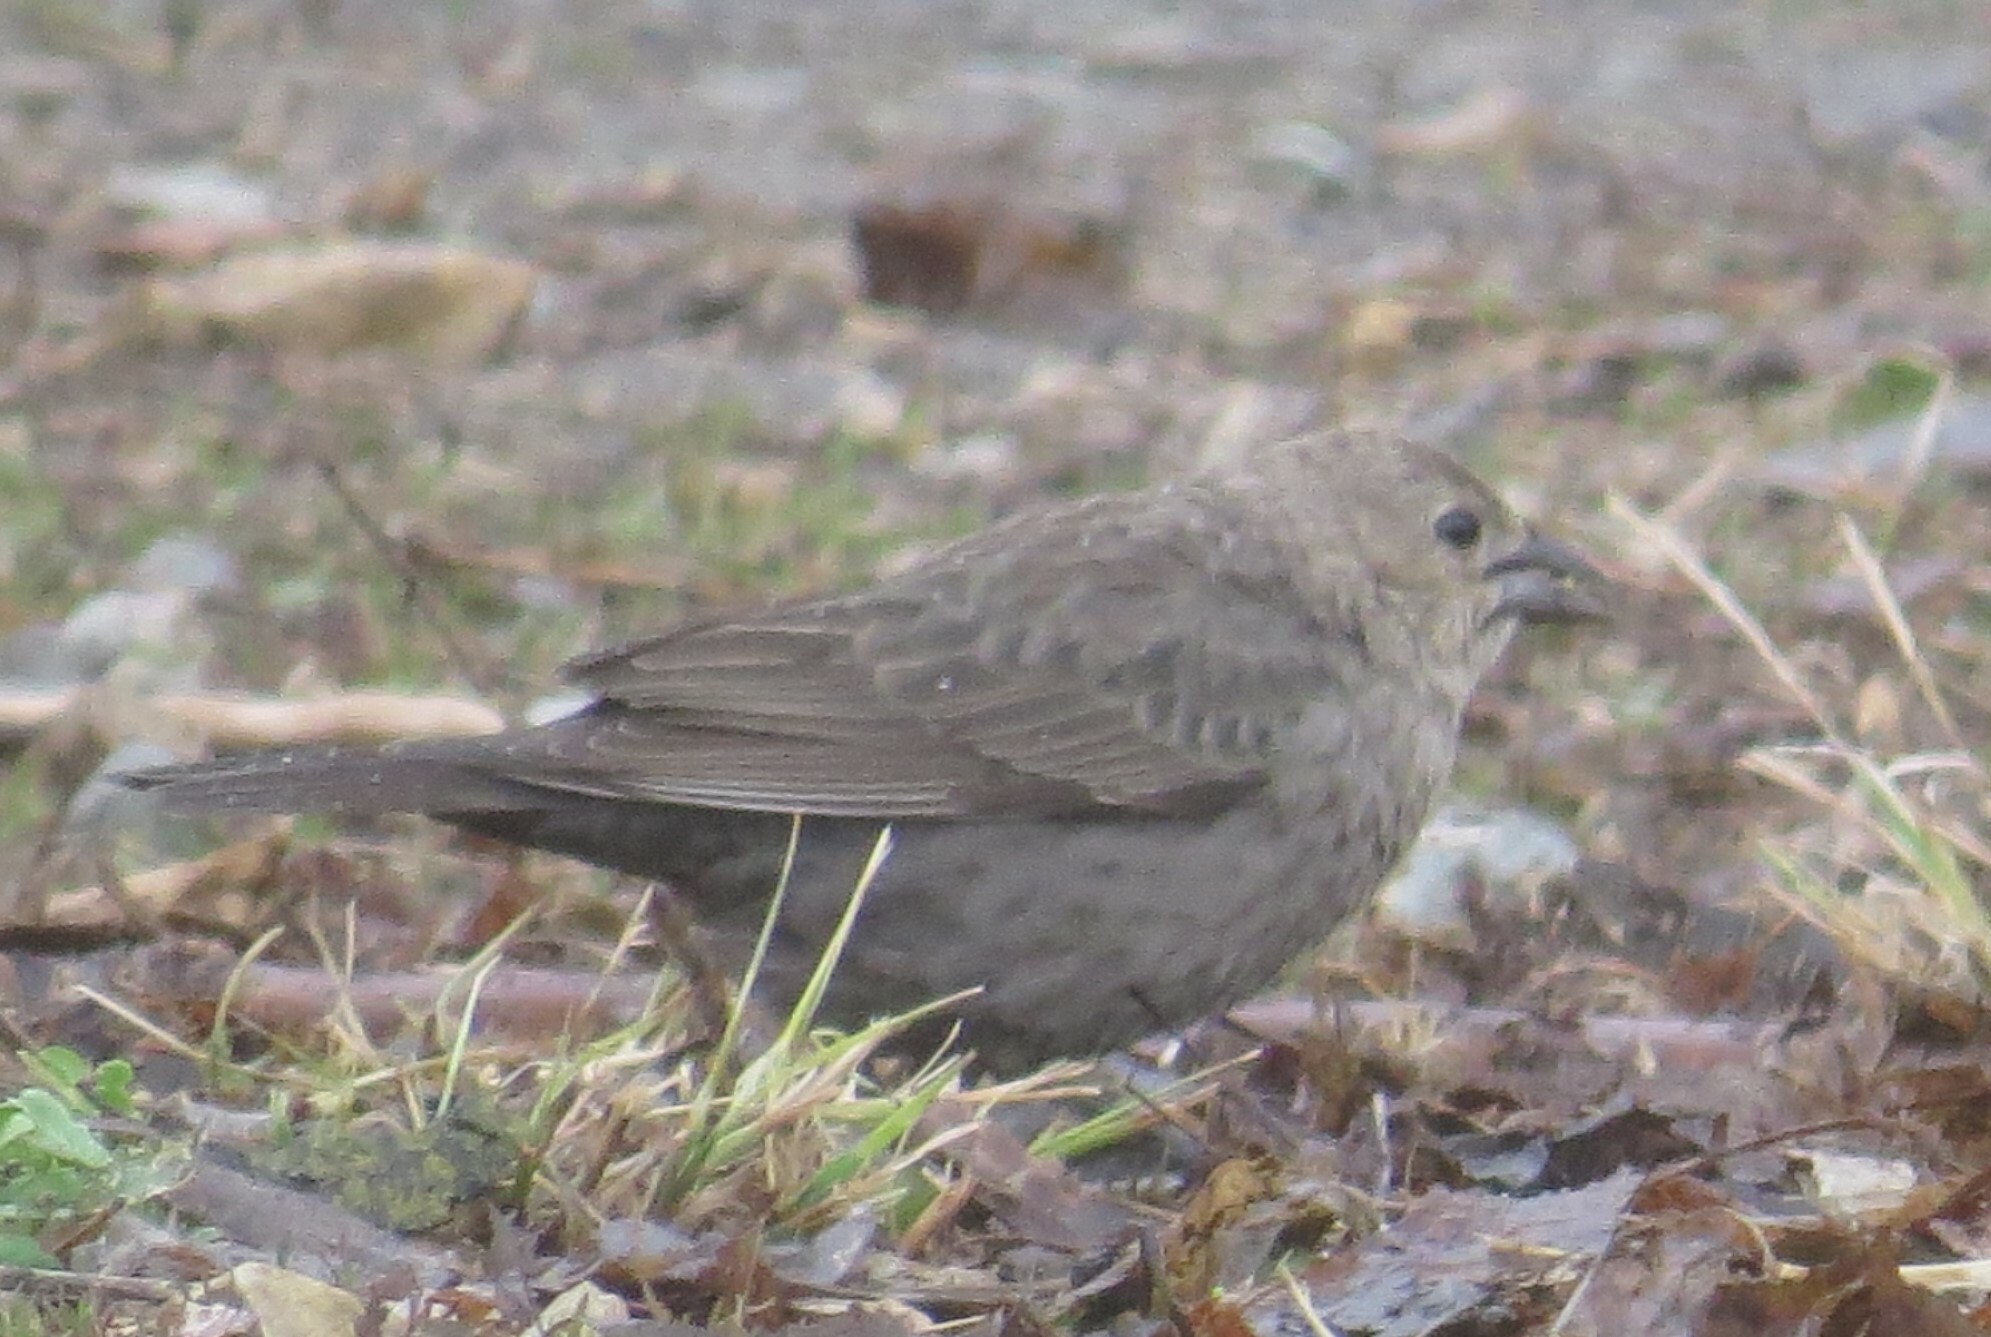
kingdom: Animalia
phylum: Chordata
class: Aves
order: Passeriformes
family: Icteridae
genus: Molothrus
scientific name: Molothrus ater
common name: Brown-headed cowbird
